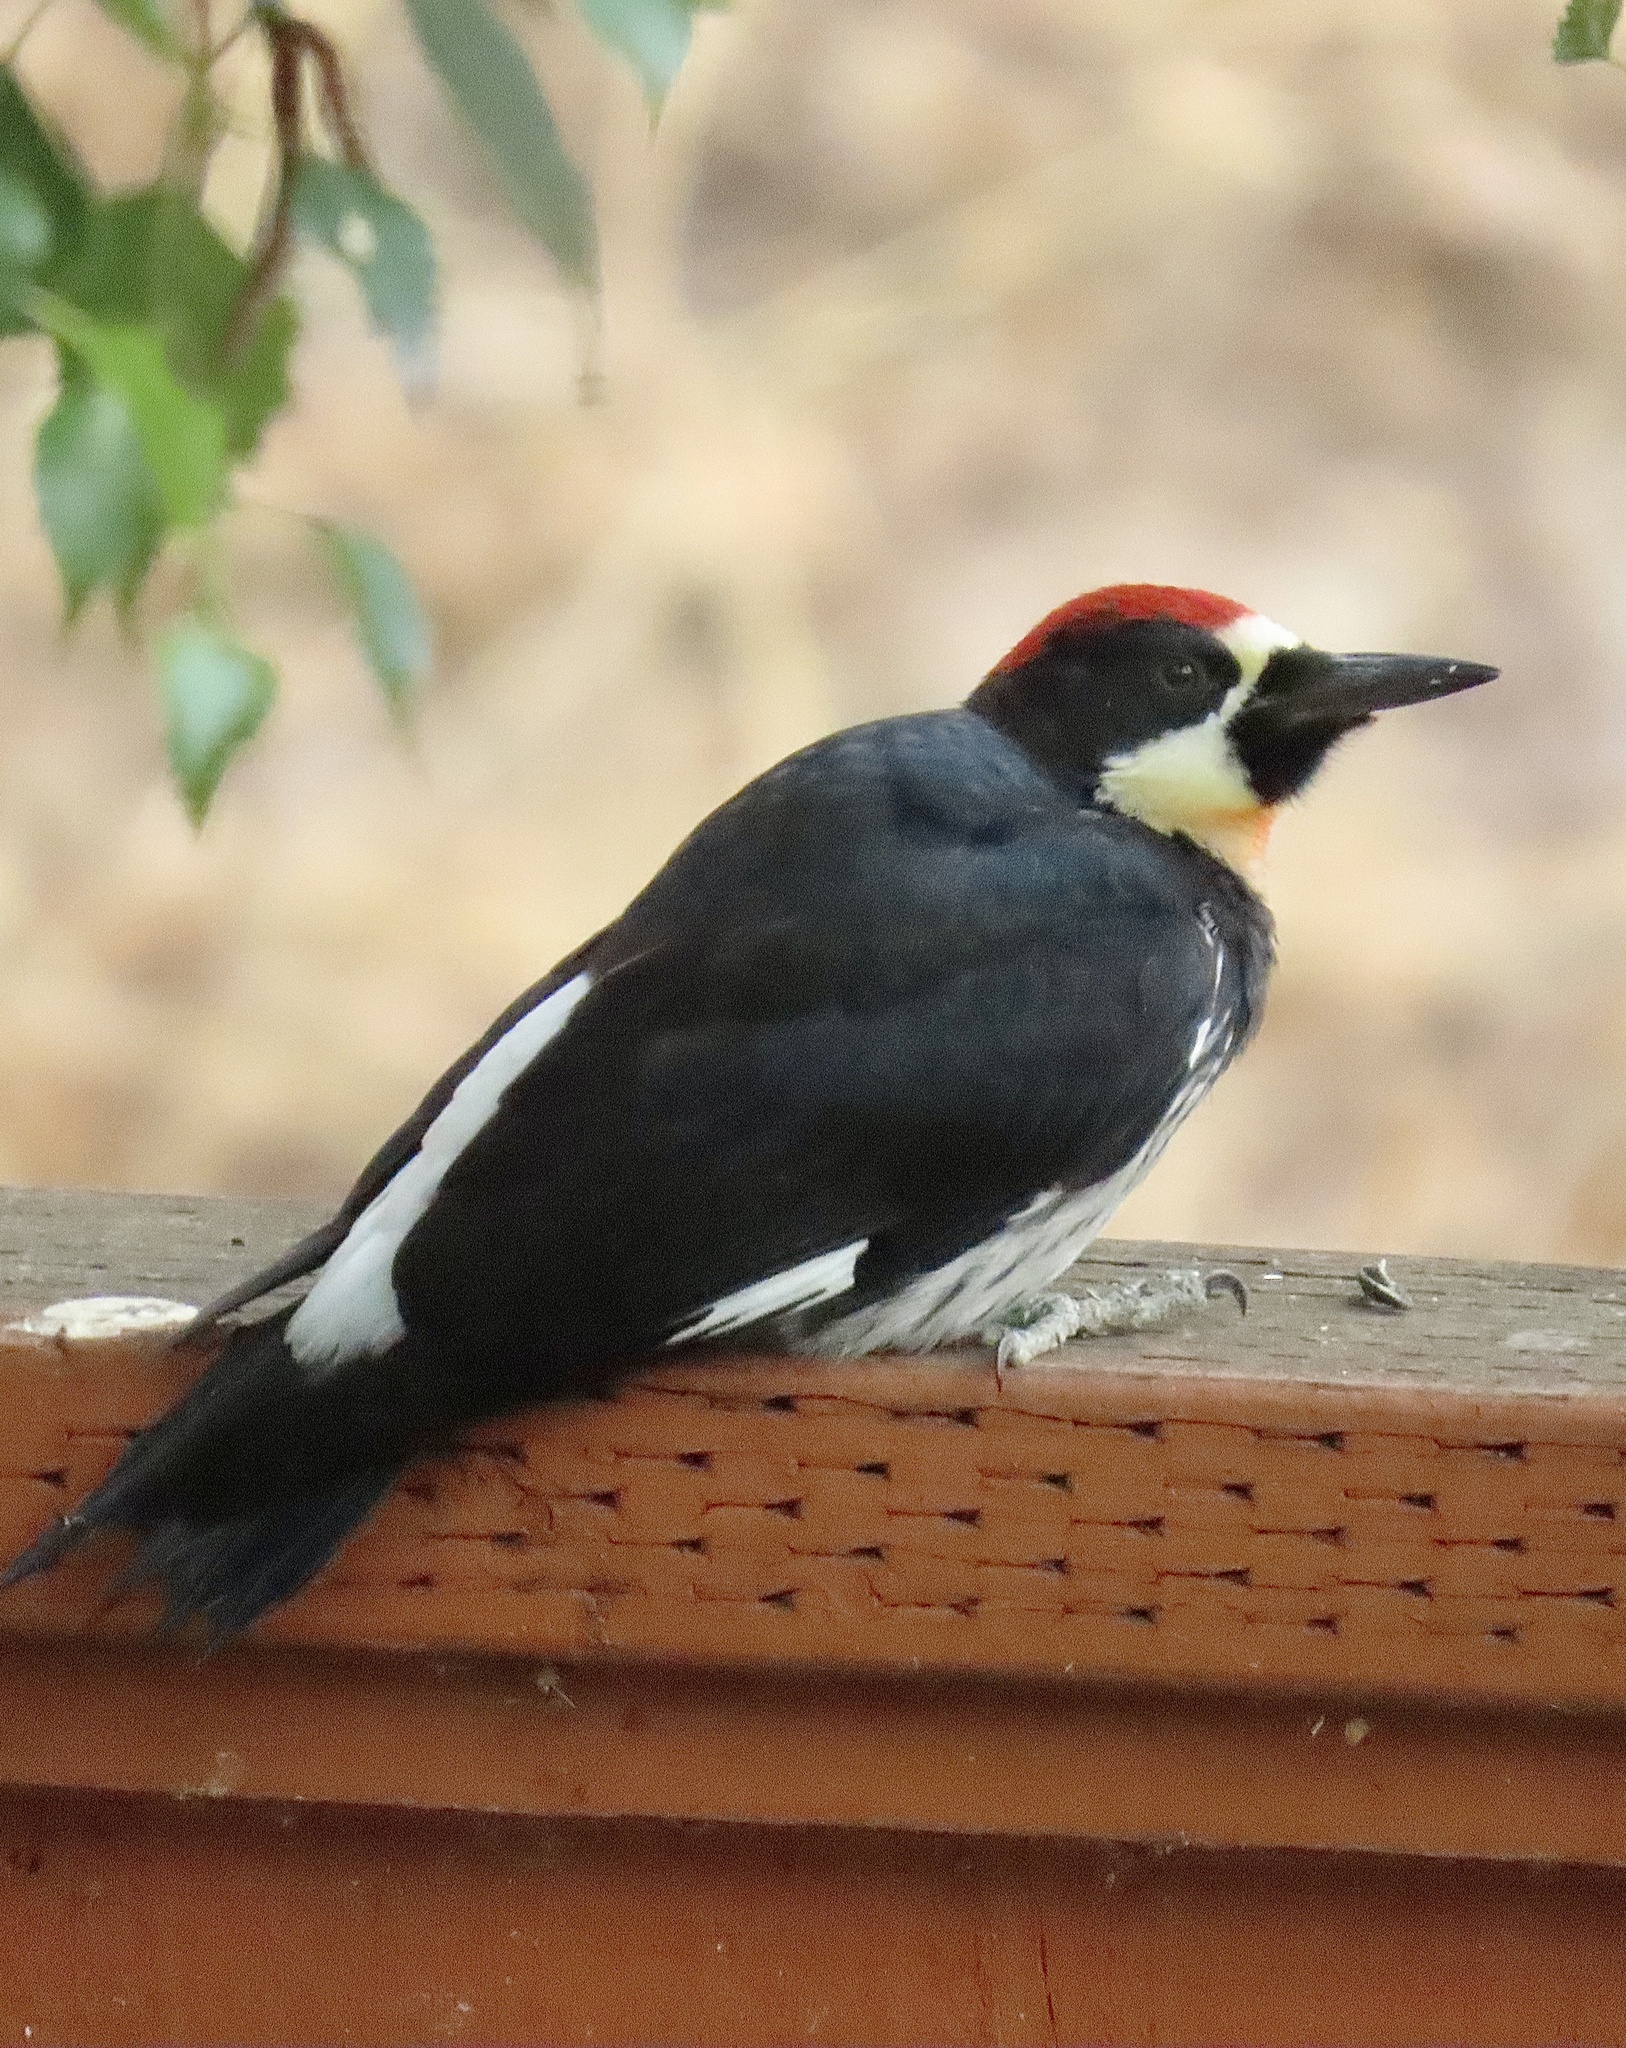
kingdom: Animalia
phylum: Chordata
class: Aves
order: Piciformes
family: Picidae
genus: Melanerpes
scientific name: Melanerpes formicivorus
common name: Acorn woodpecker
